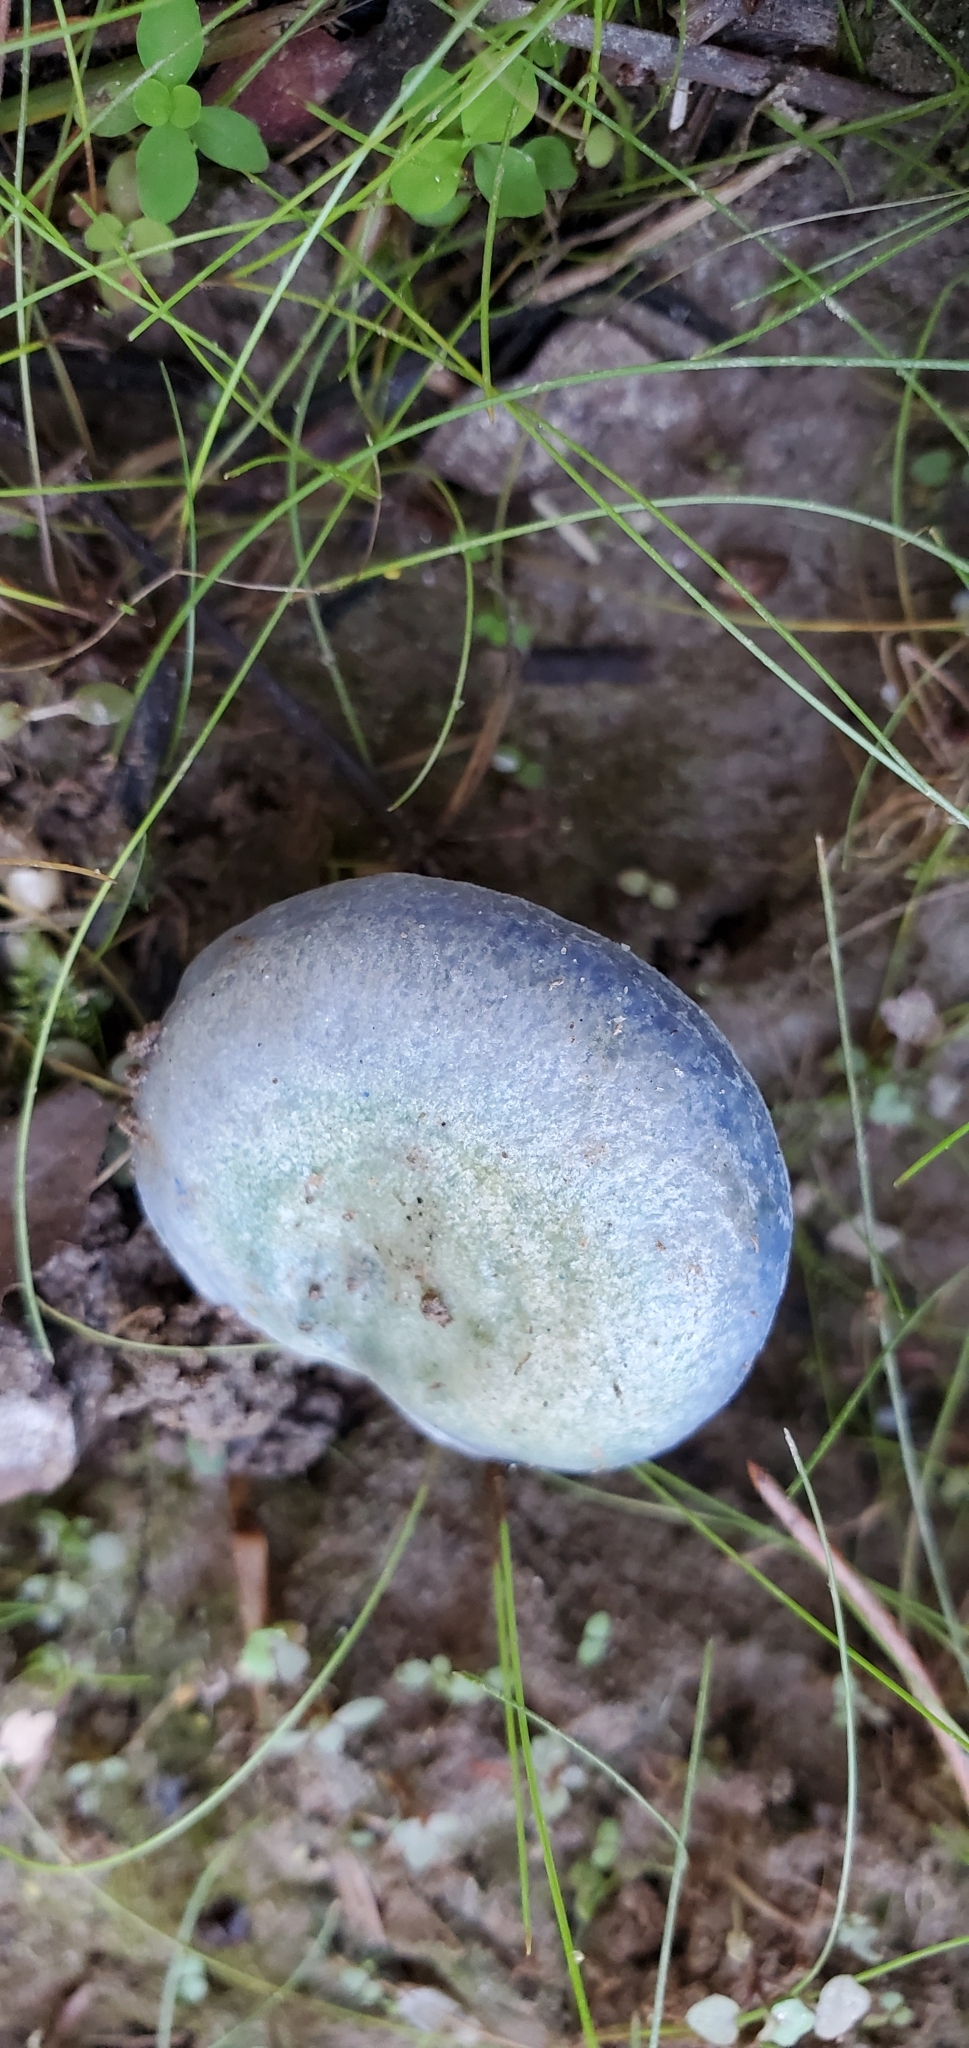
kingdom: Fungi
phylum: Basidiomycota
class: Agaricomycetes
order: Russulales
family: Russulaceae
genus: Lactarius
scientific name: Lactarius indigo
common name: Indigo milk cap
